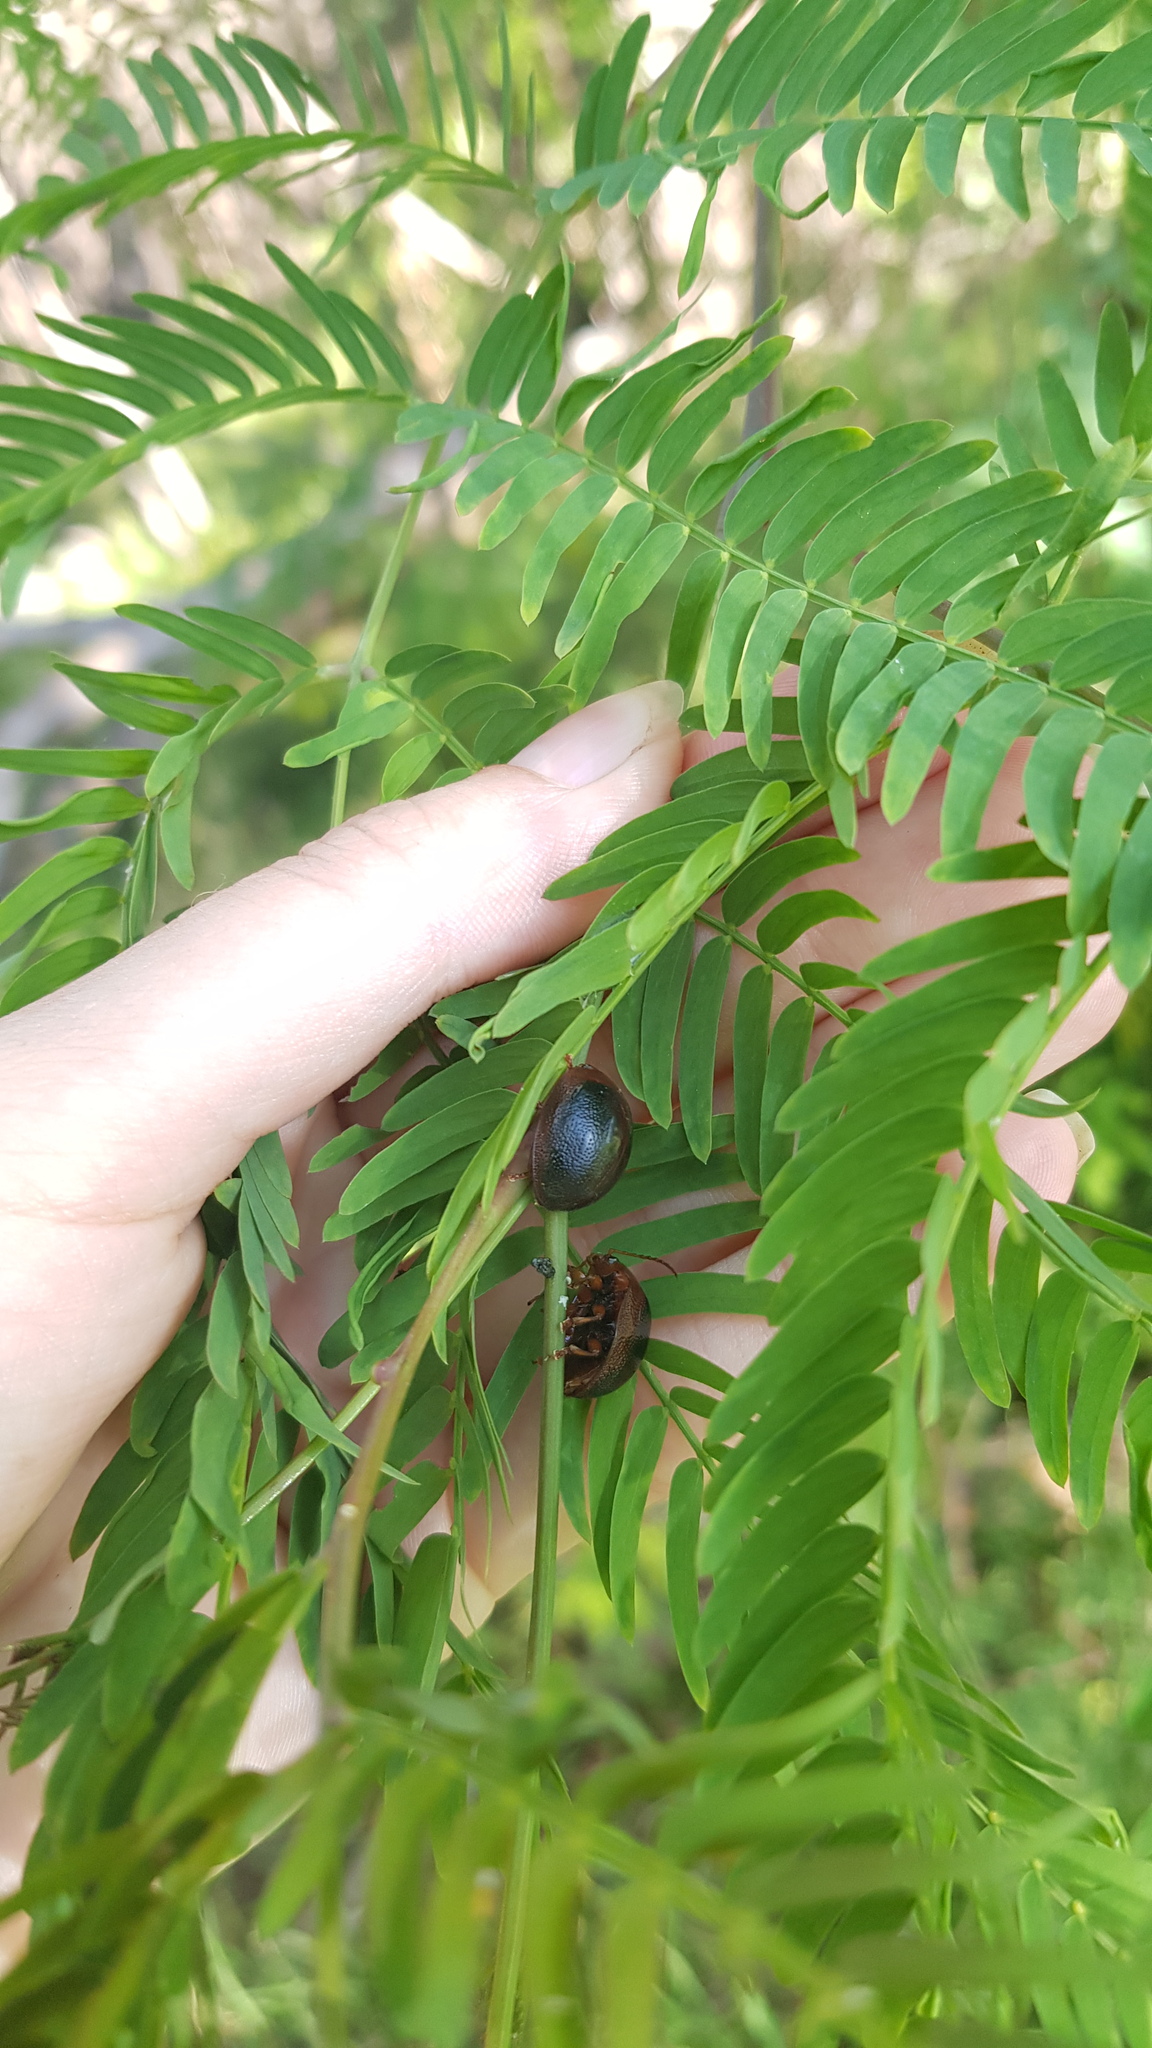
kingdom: Animalia
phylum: Arthropoda
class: Insecta
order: Coleoptera
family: Chrysomelidae
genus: Dicranosterna
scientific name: Dicranosterna
